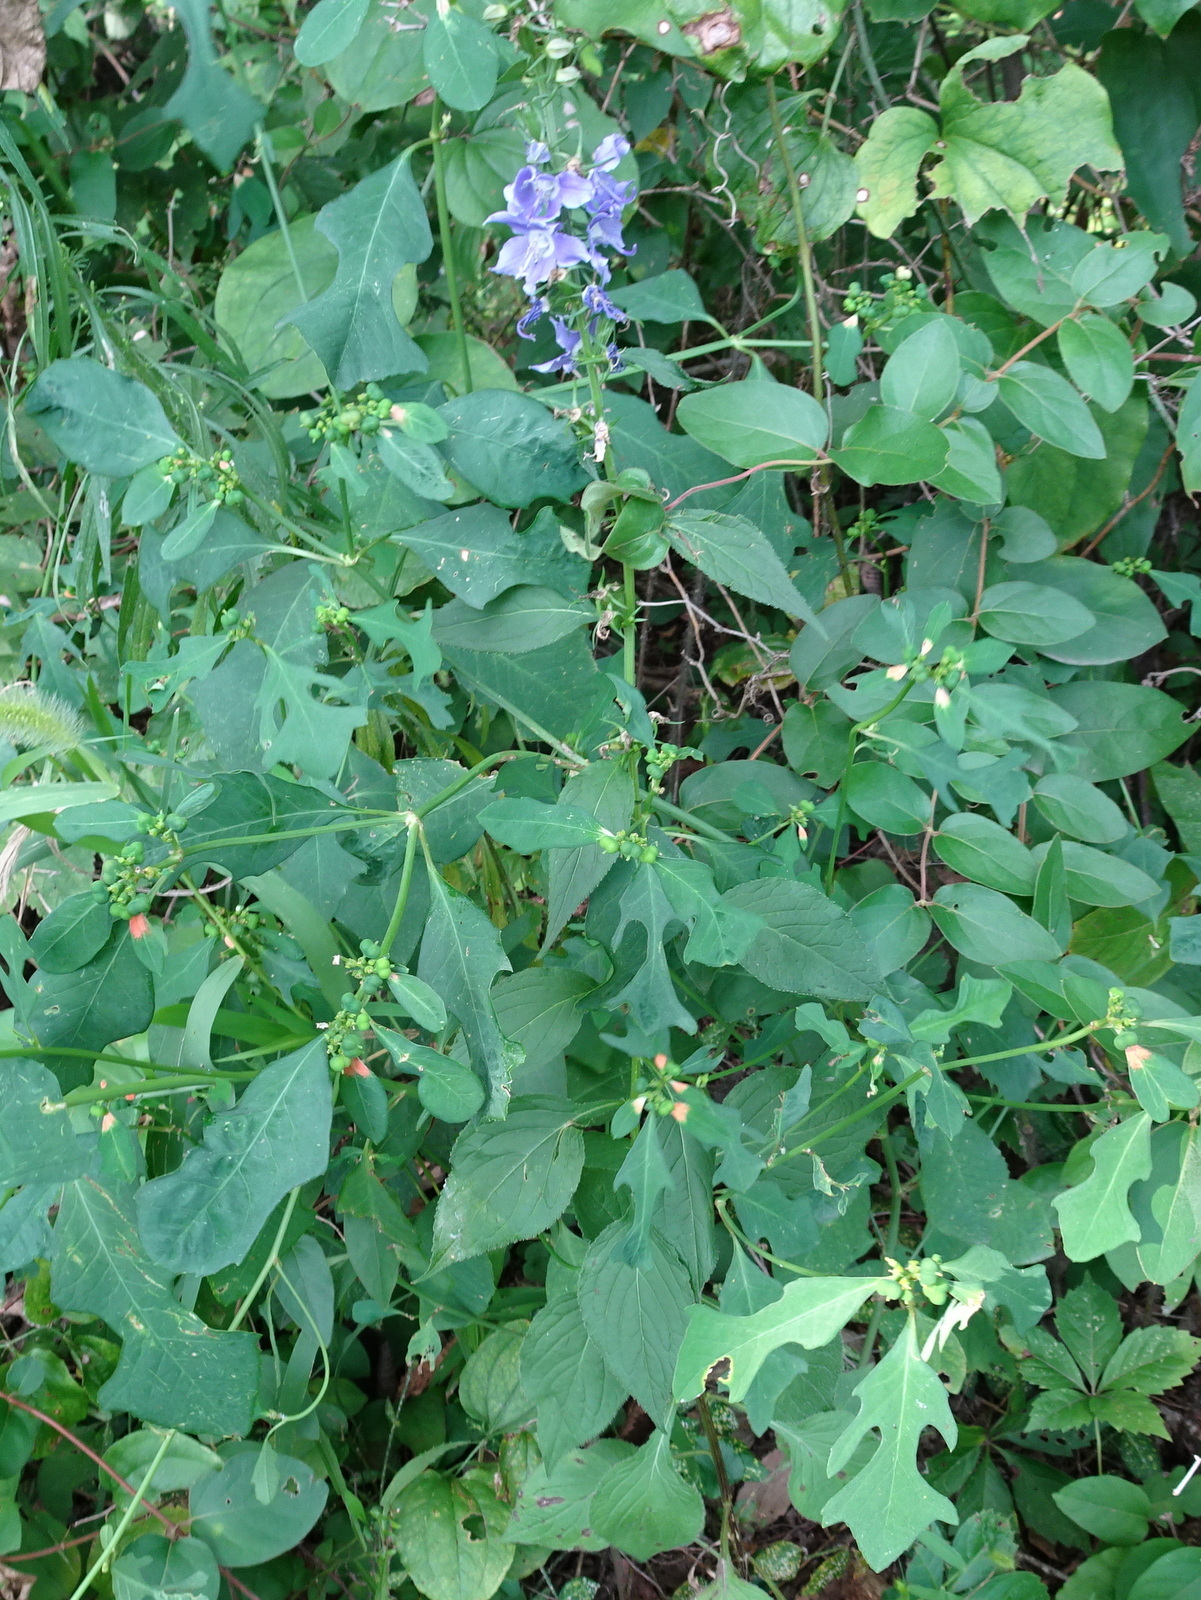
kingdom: Plantae
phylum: Tracheophyta
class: Magnoliopsida
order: Asterales
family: Campanulaceae
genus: Campanulastrum
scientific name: Campanulastrum americanum
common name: American bellflower
